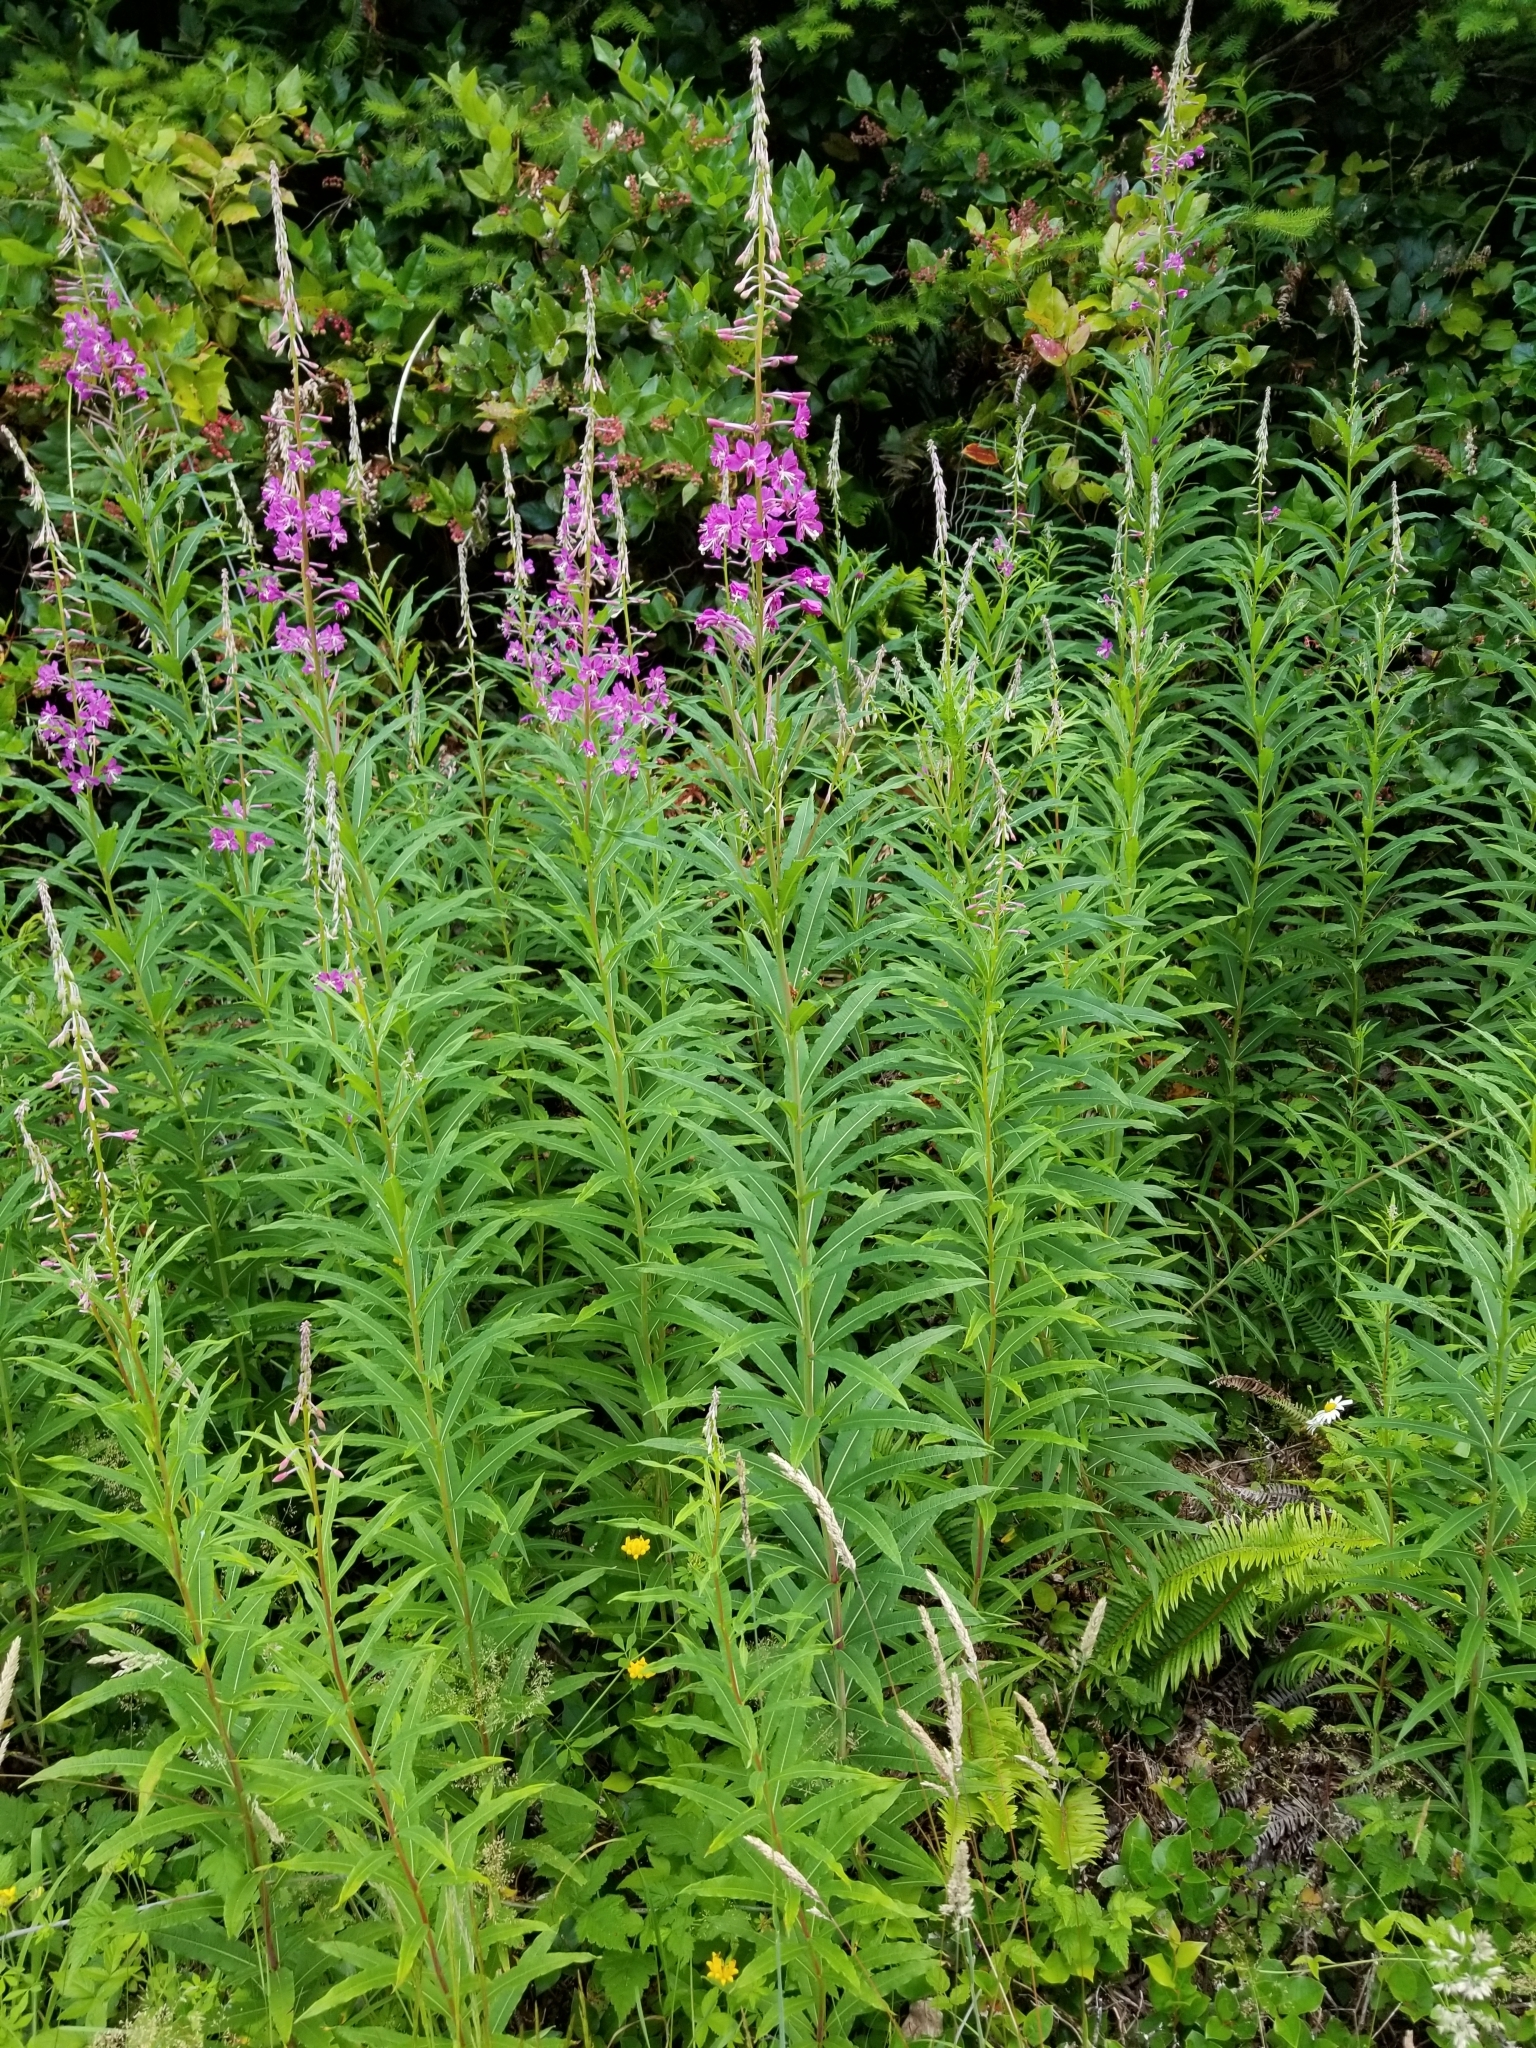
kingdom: Plantae
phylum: Tracheophyta
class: Magnoliopsida
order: Myrtales
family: Onagraceae
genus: Chamaenerion
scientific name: Chamaenerion angustifolium
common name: Fireweed
